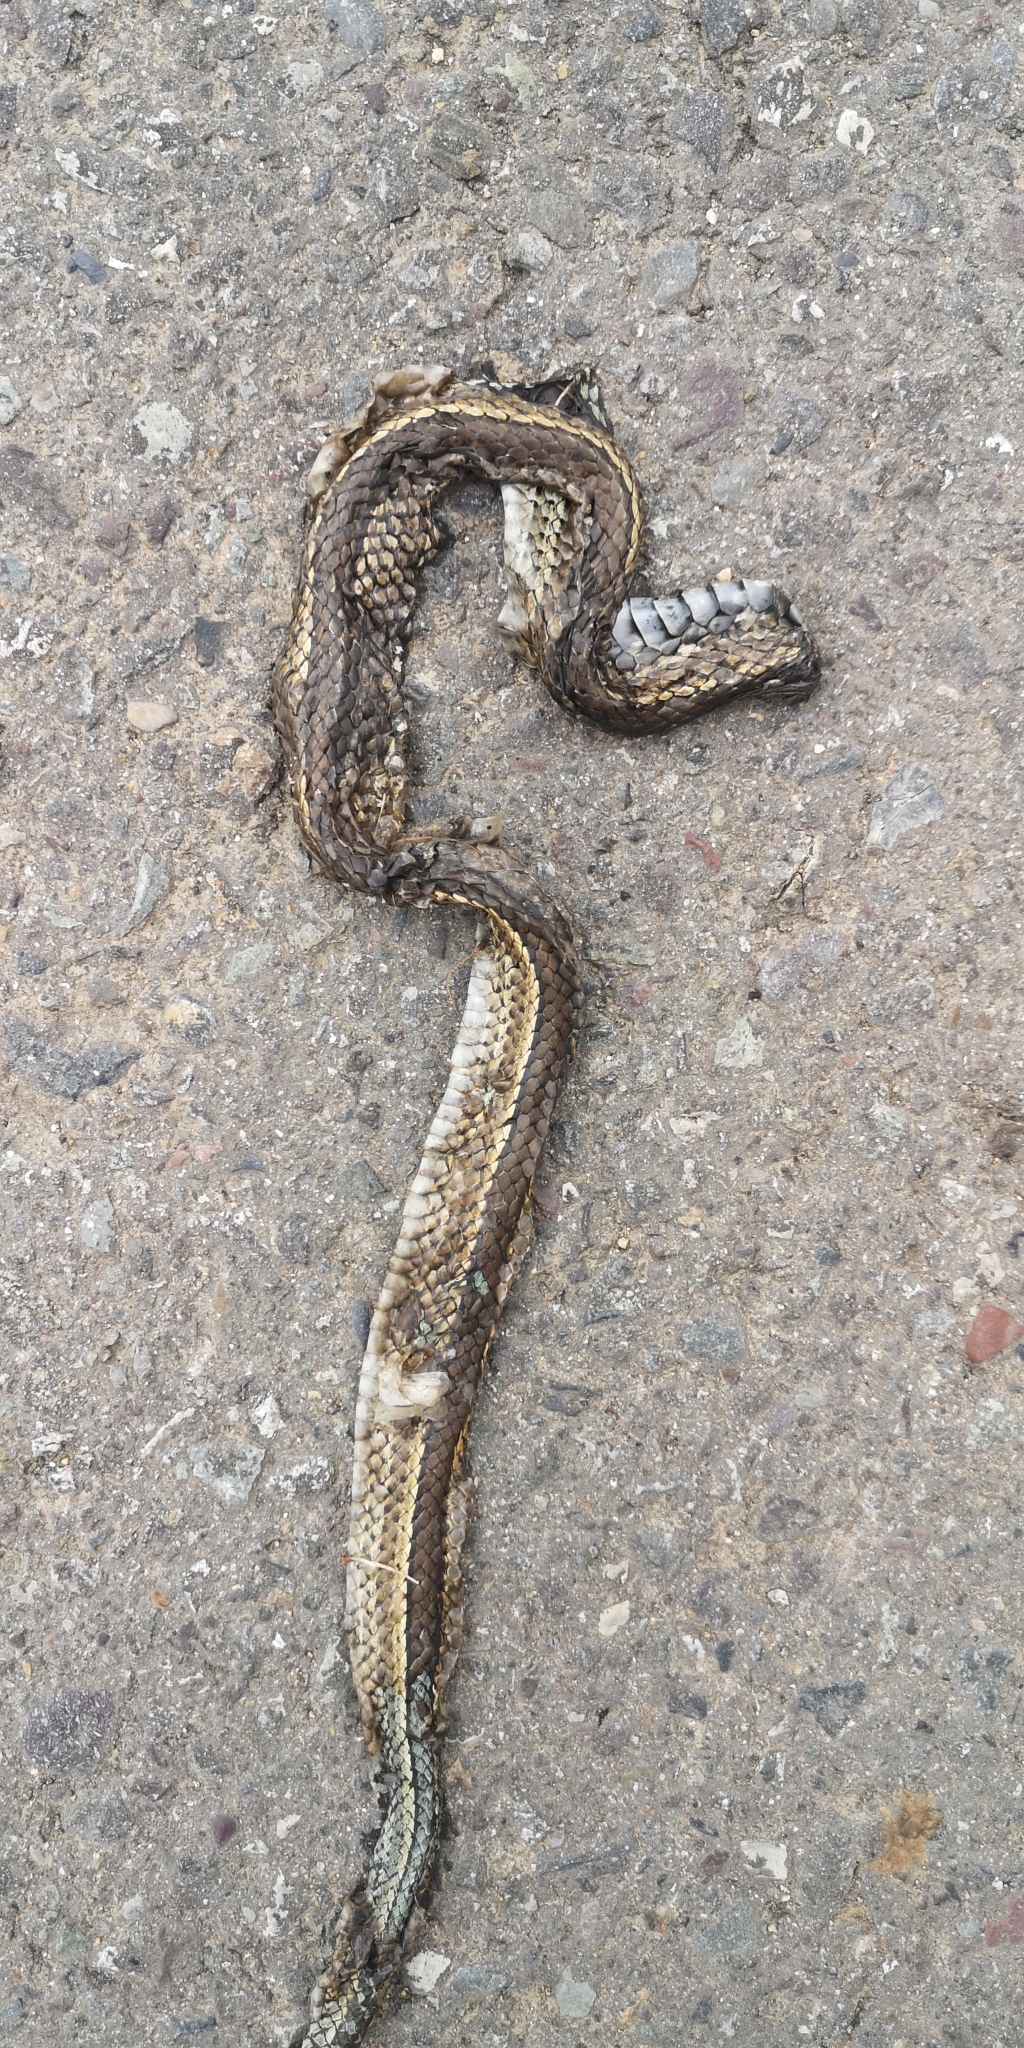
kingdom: Animalia
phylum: Chordata
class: Squamata
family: Colubridae
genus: Philodryas
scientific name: Philodryas chamissonis
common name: Chilean green racer
